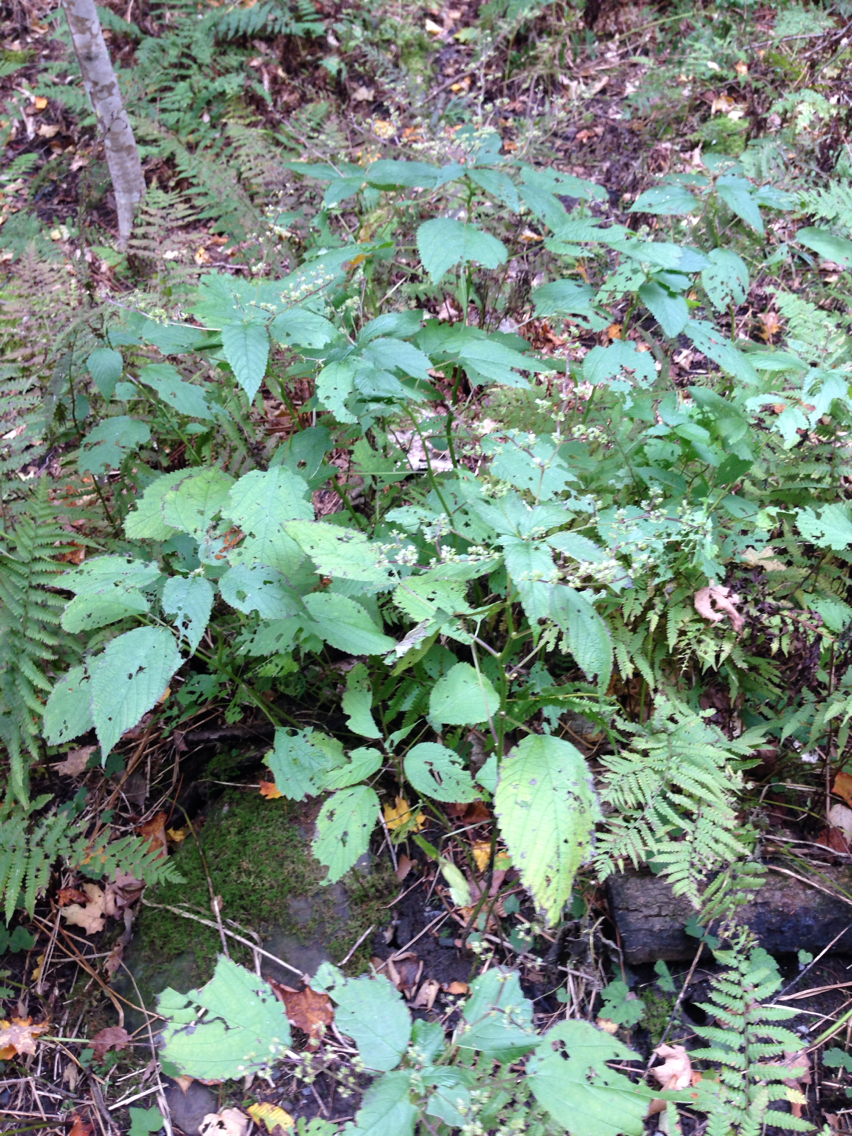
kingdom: Plantae
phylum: Tracheophyta
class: Magnoliopsida
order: Rosales
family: Urticaceae
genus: Laportea
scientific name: Laportea canadensis
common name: Canada nettle
